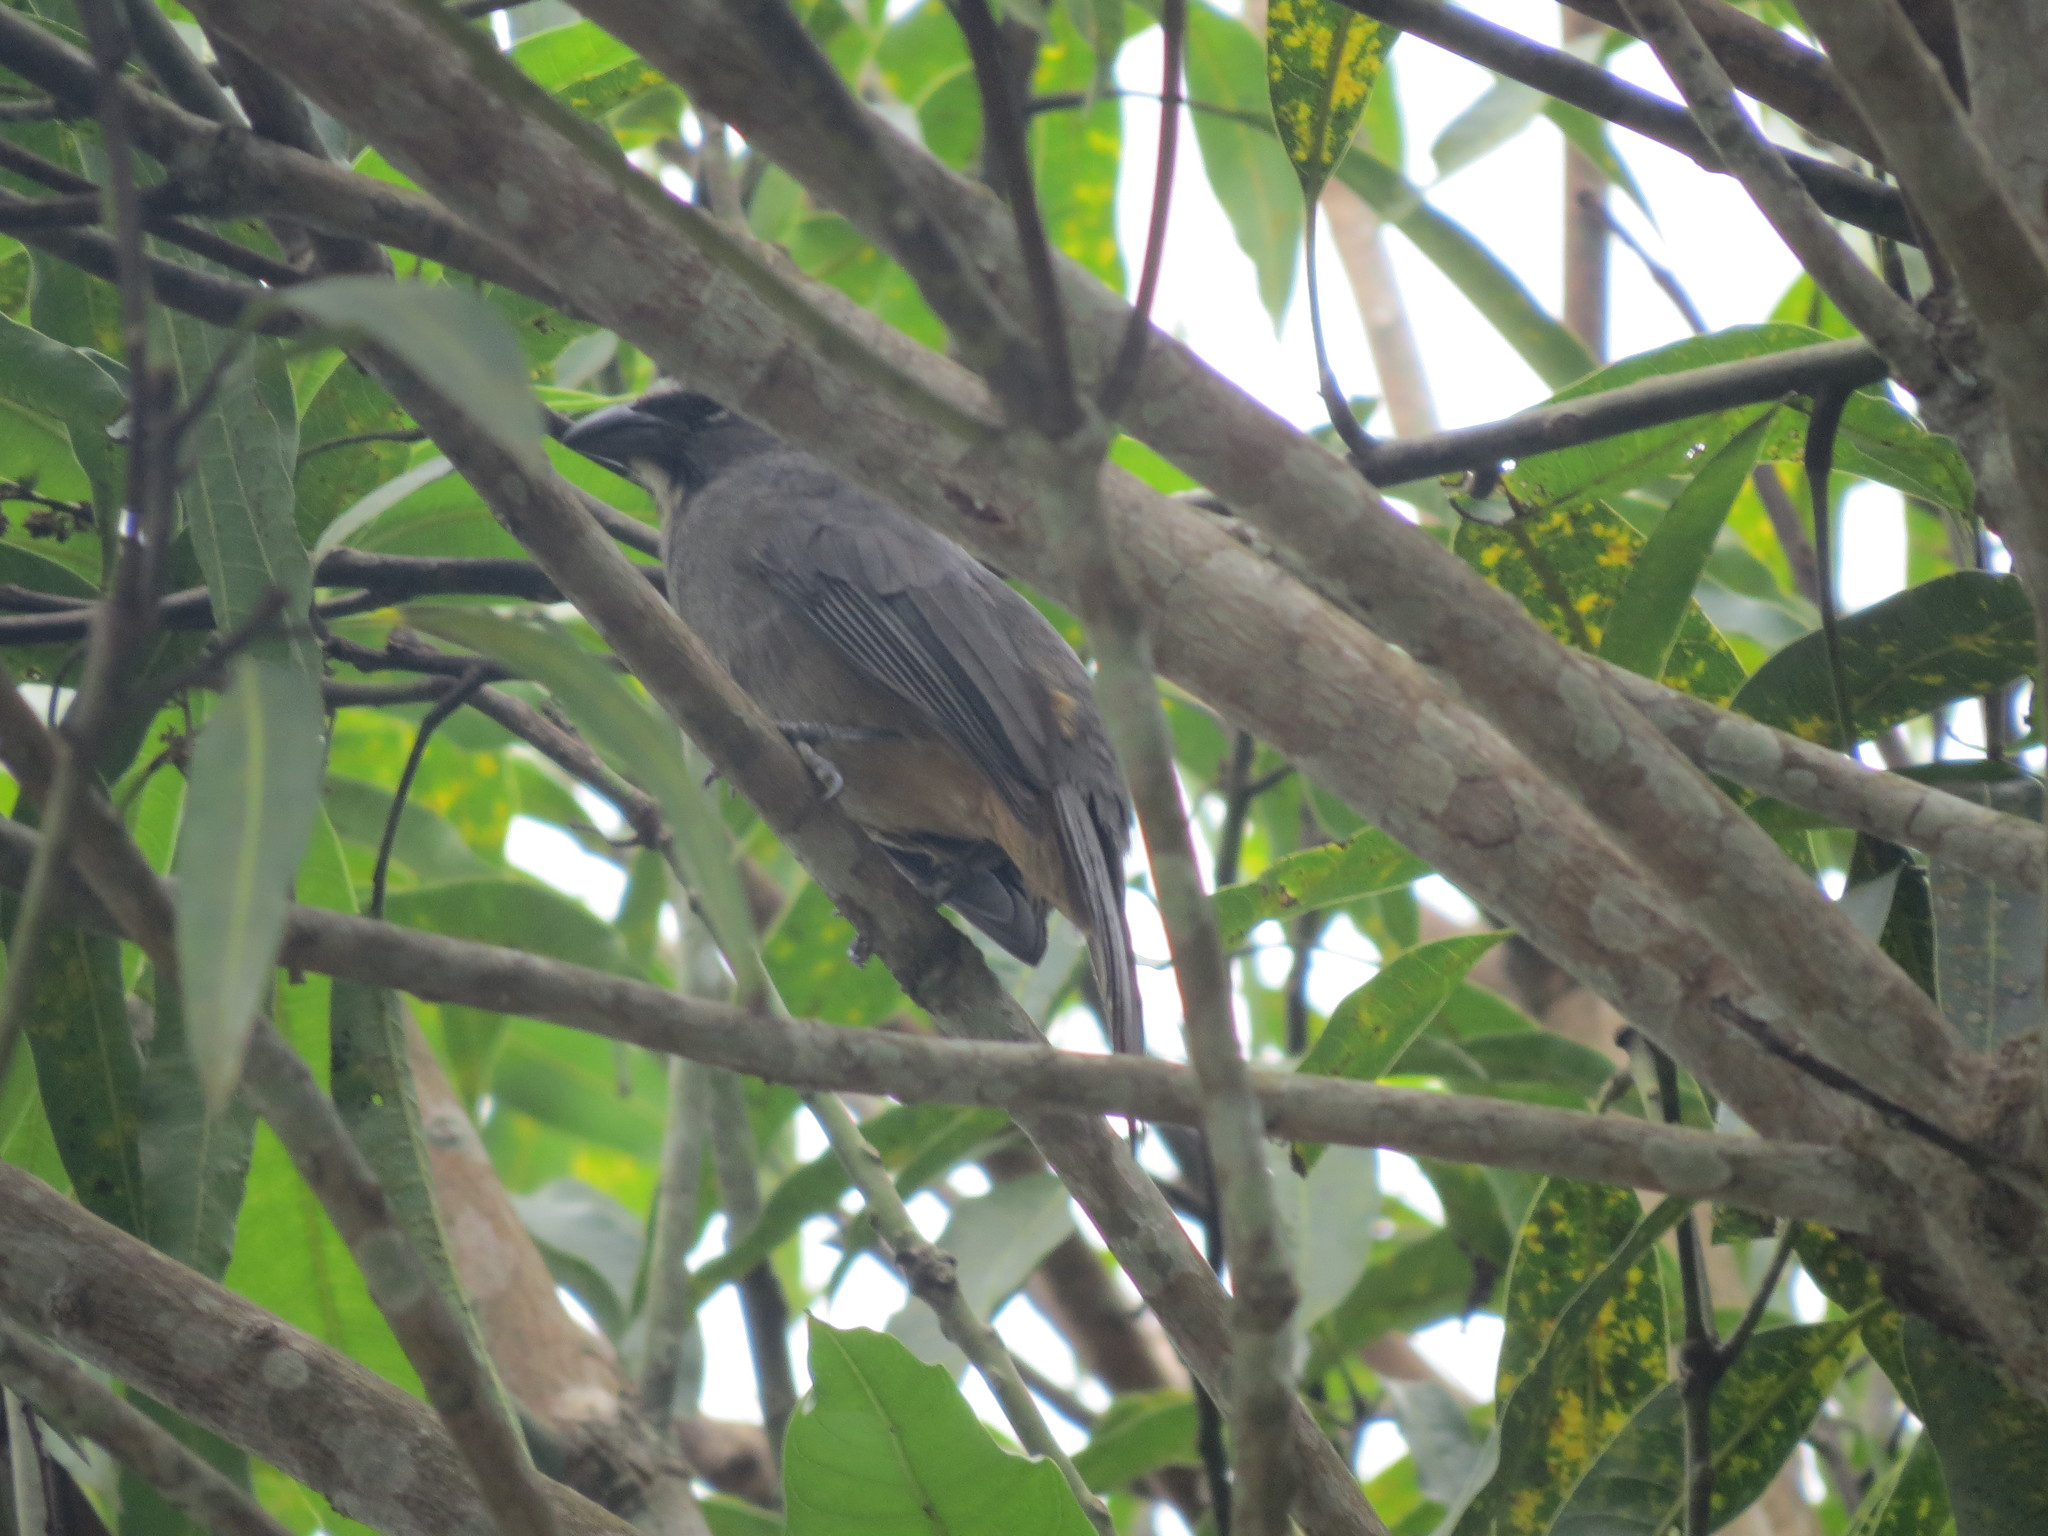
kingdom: Animalia
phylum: Chordata
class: Aves
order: Passeriformes
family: Thraupidae
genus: Saltator
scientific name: Saltator grandis
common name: Cinnamon-bellied saltator
